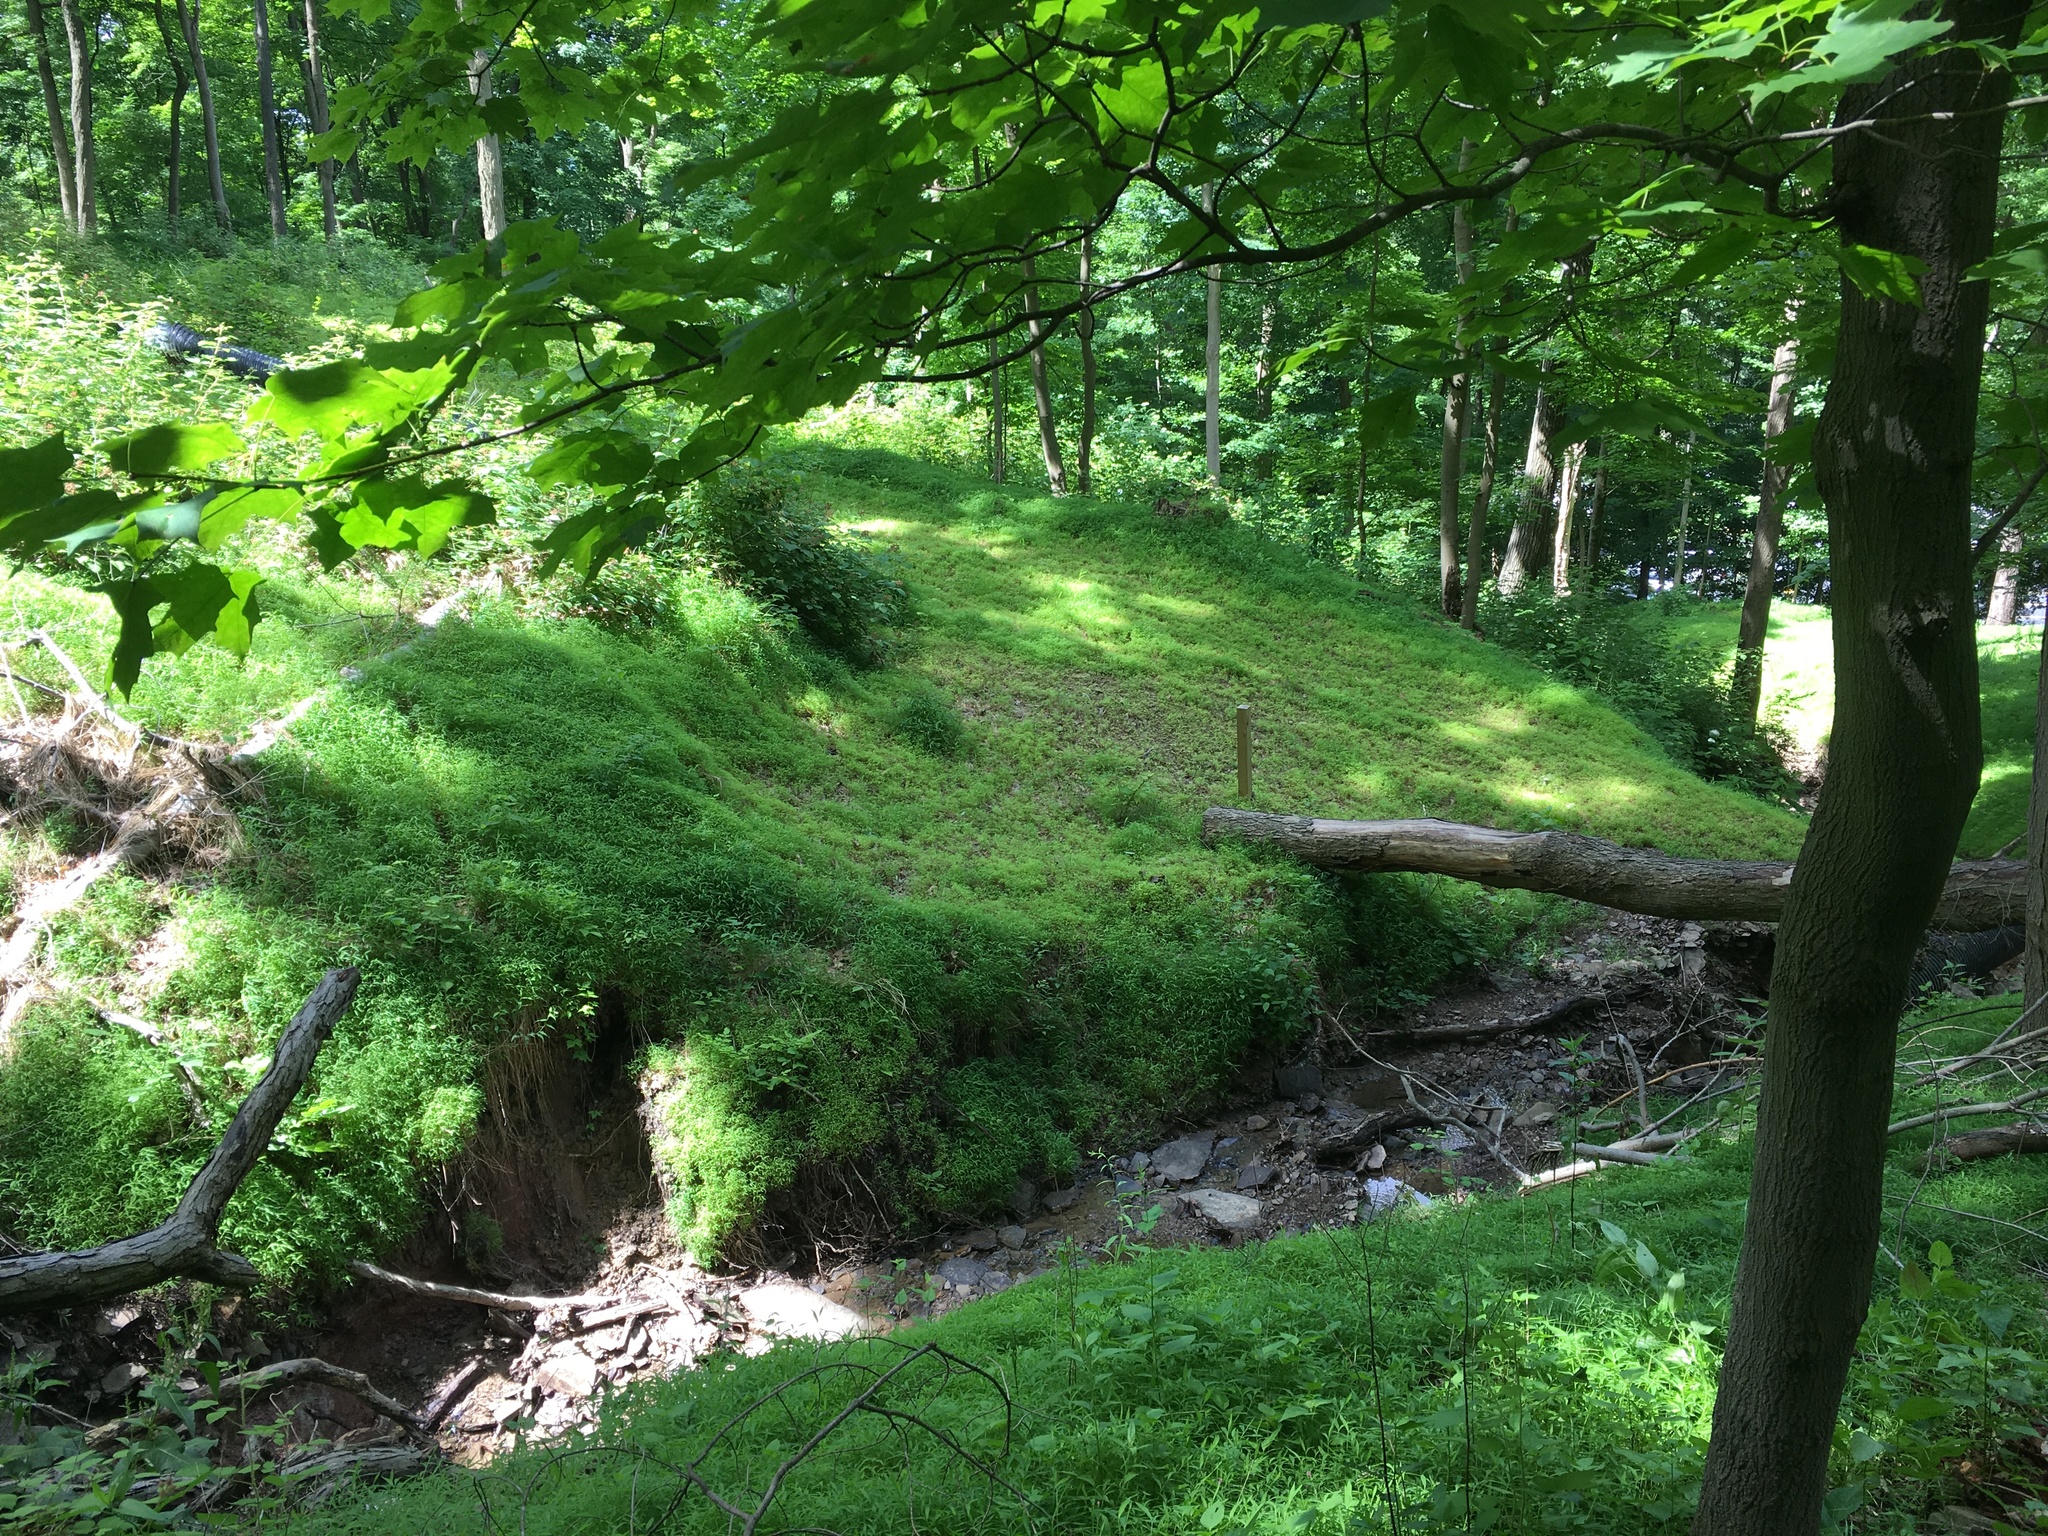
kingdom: Plantae
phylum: Tracheophyta
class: Liliopsida
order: Poales
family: Poaceae
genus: Microstegium
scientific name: Microstegium vimineum
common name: Japanese stiltgrass
